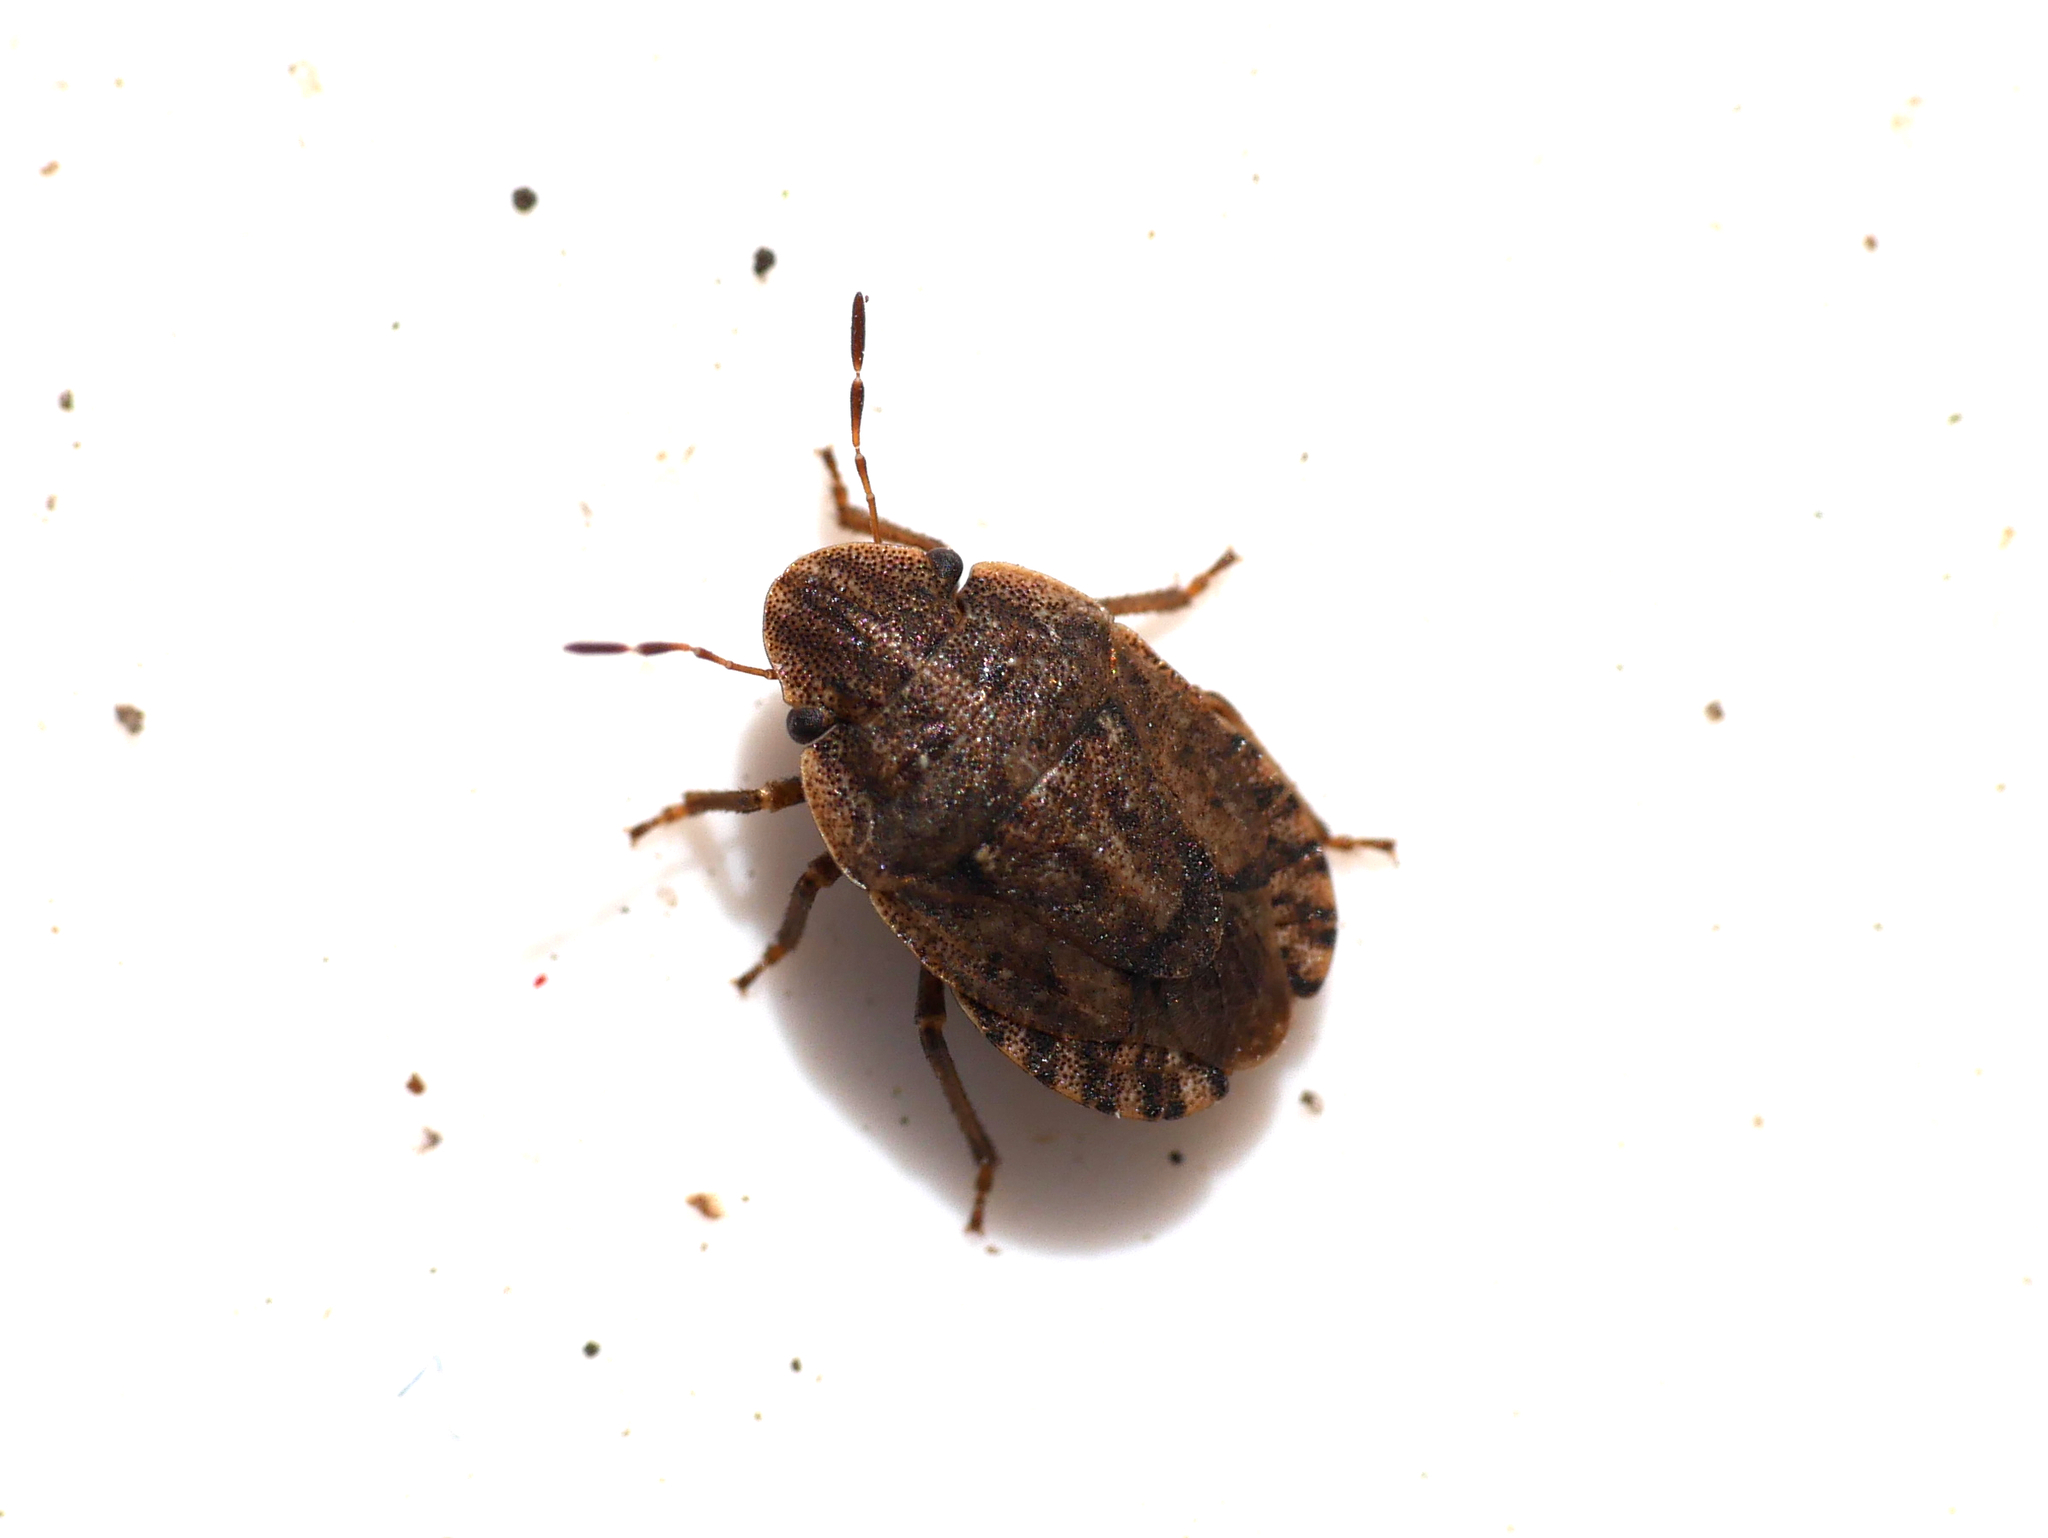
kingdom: Animalia
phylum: Arthropoda
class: Insecta
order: Hemiptera
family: Pentatomidae
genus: Sciocoris
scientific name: Sciocoris cursitans
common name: Sandrunner
